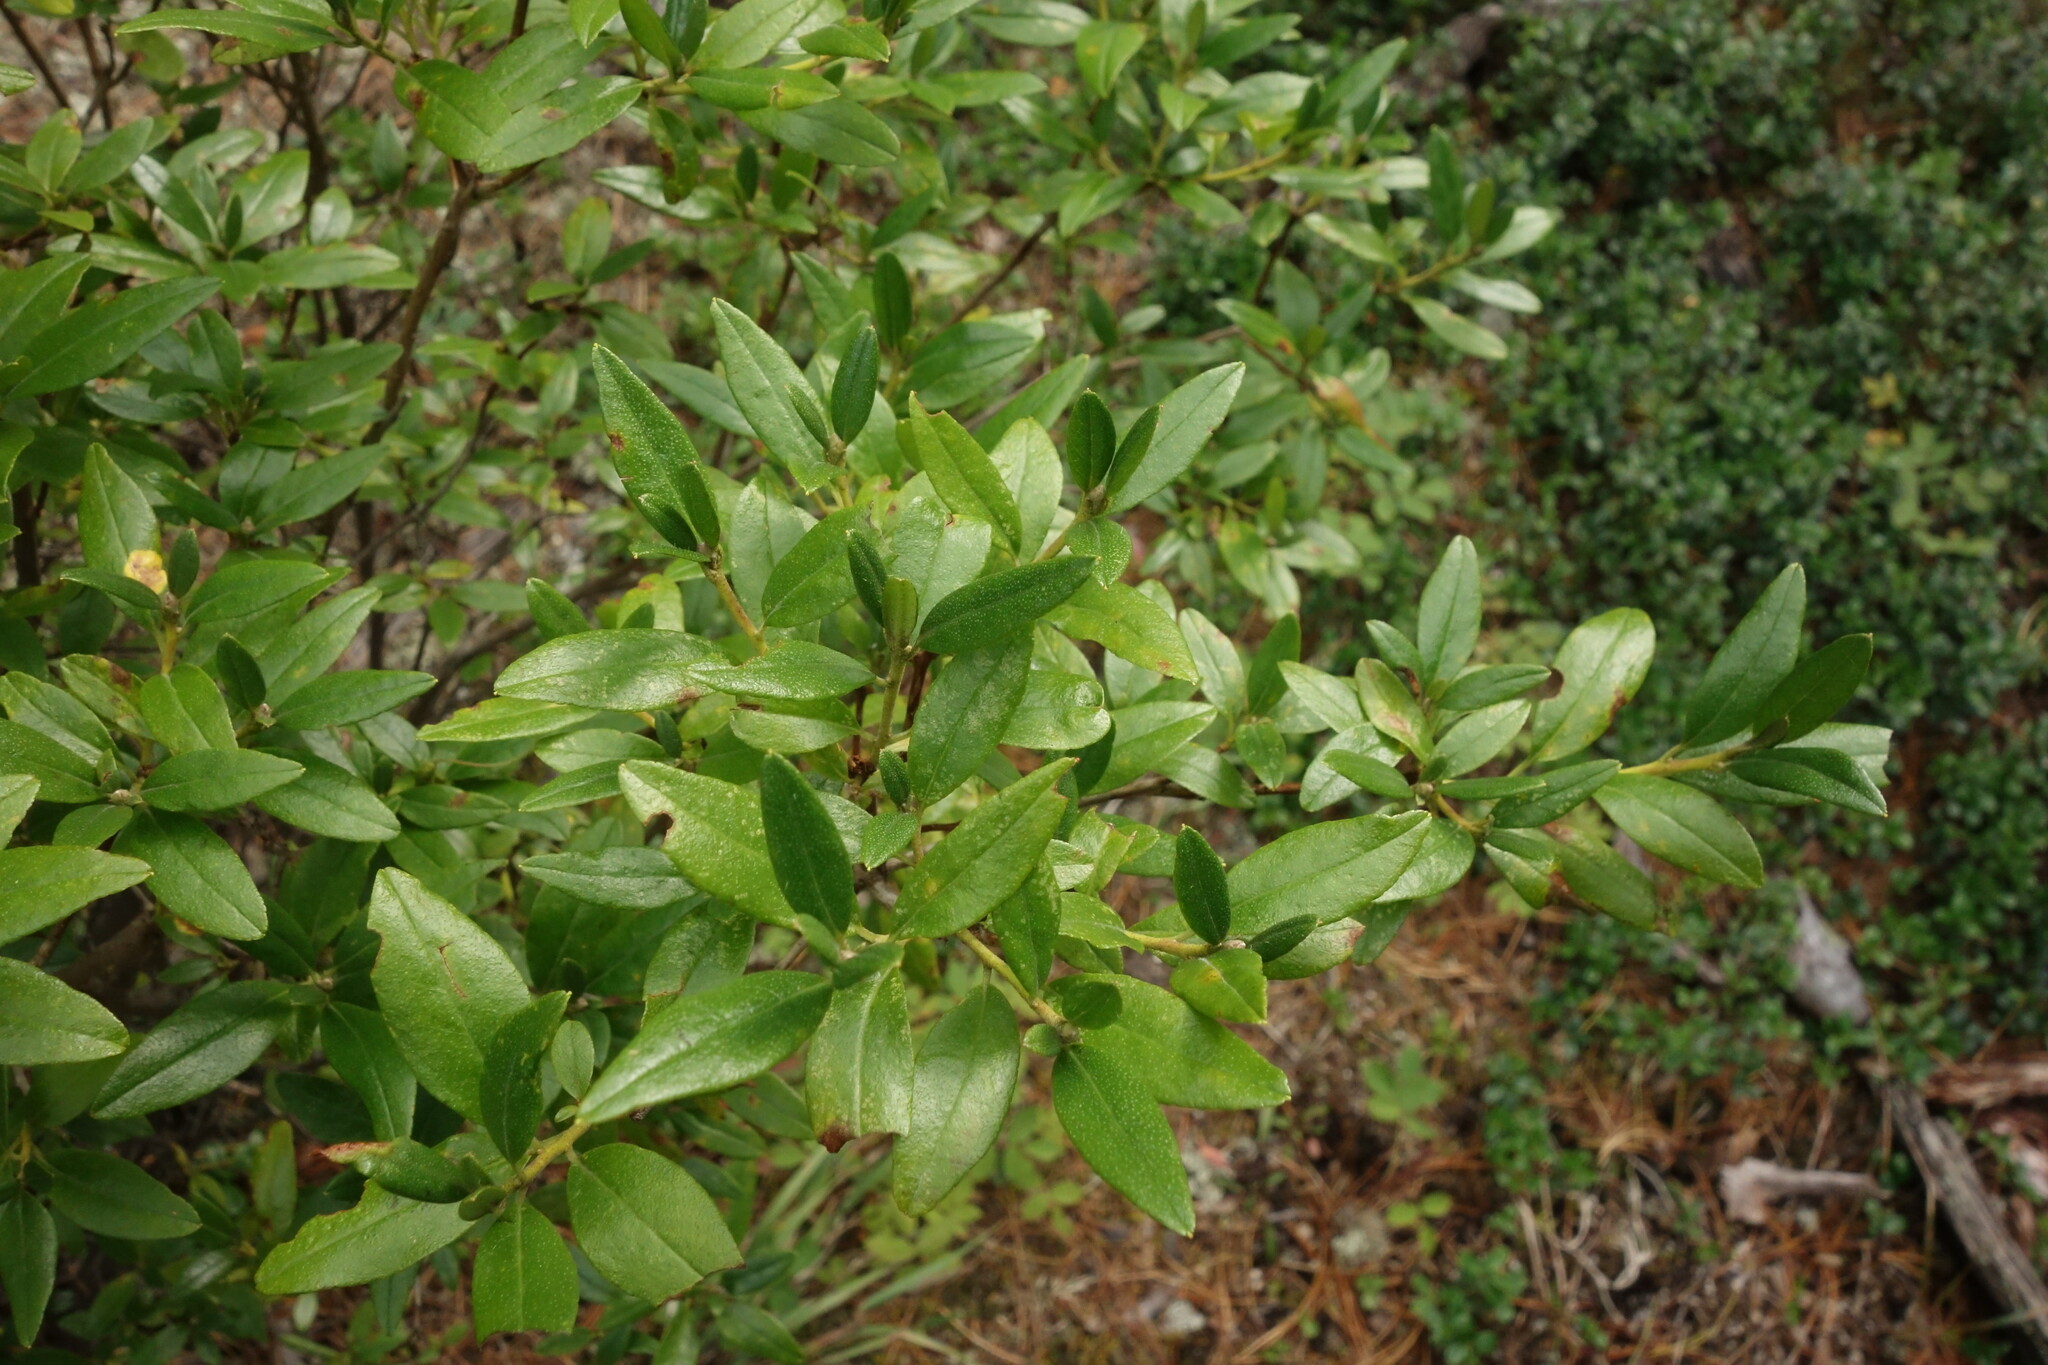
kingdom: Plantae
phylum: Tracheophyta
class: Magnoliopsida
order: Ericales
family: Ericaceae
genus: Rhododendron
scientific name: Rhododendron dauricum
